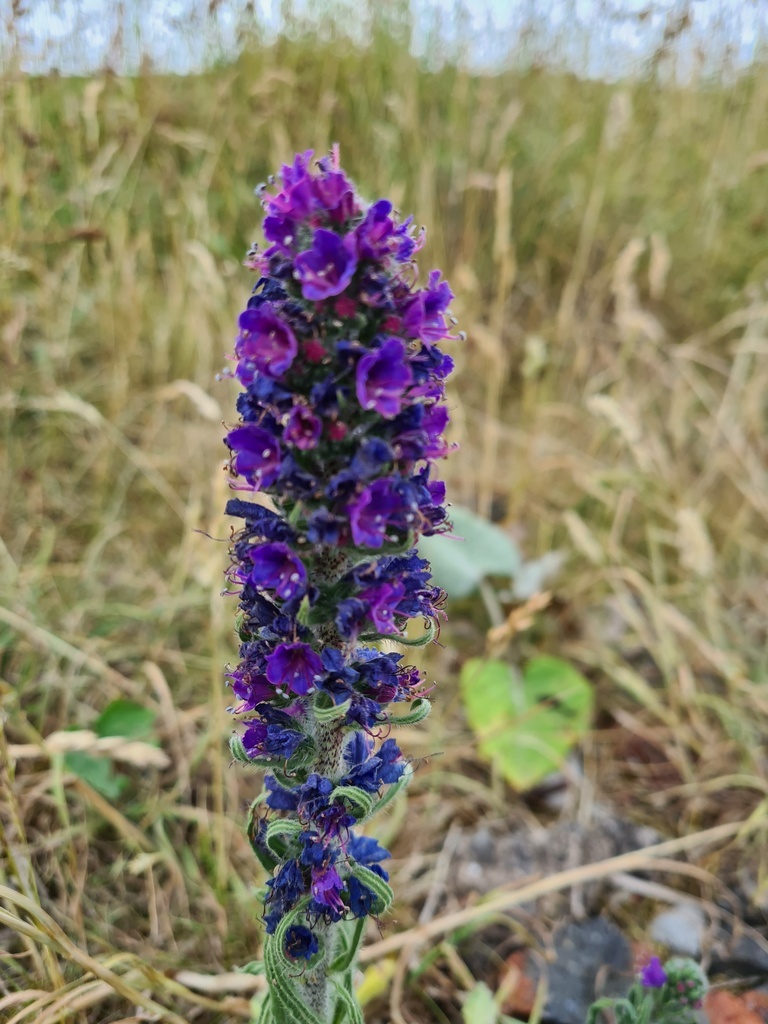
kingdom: Plantae
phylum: Tracheophyta
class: Magnoliopsida
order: Boraginales
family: Boraginaceae
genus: Echium
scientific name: Echium vulgare
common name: Common viper's bugloss
